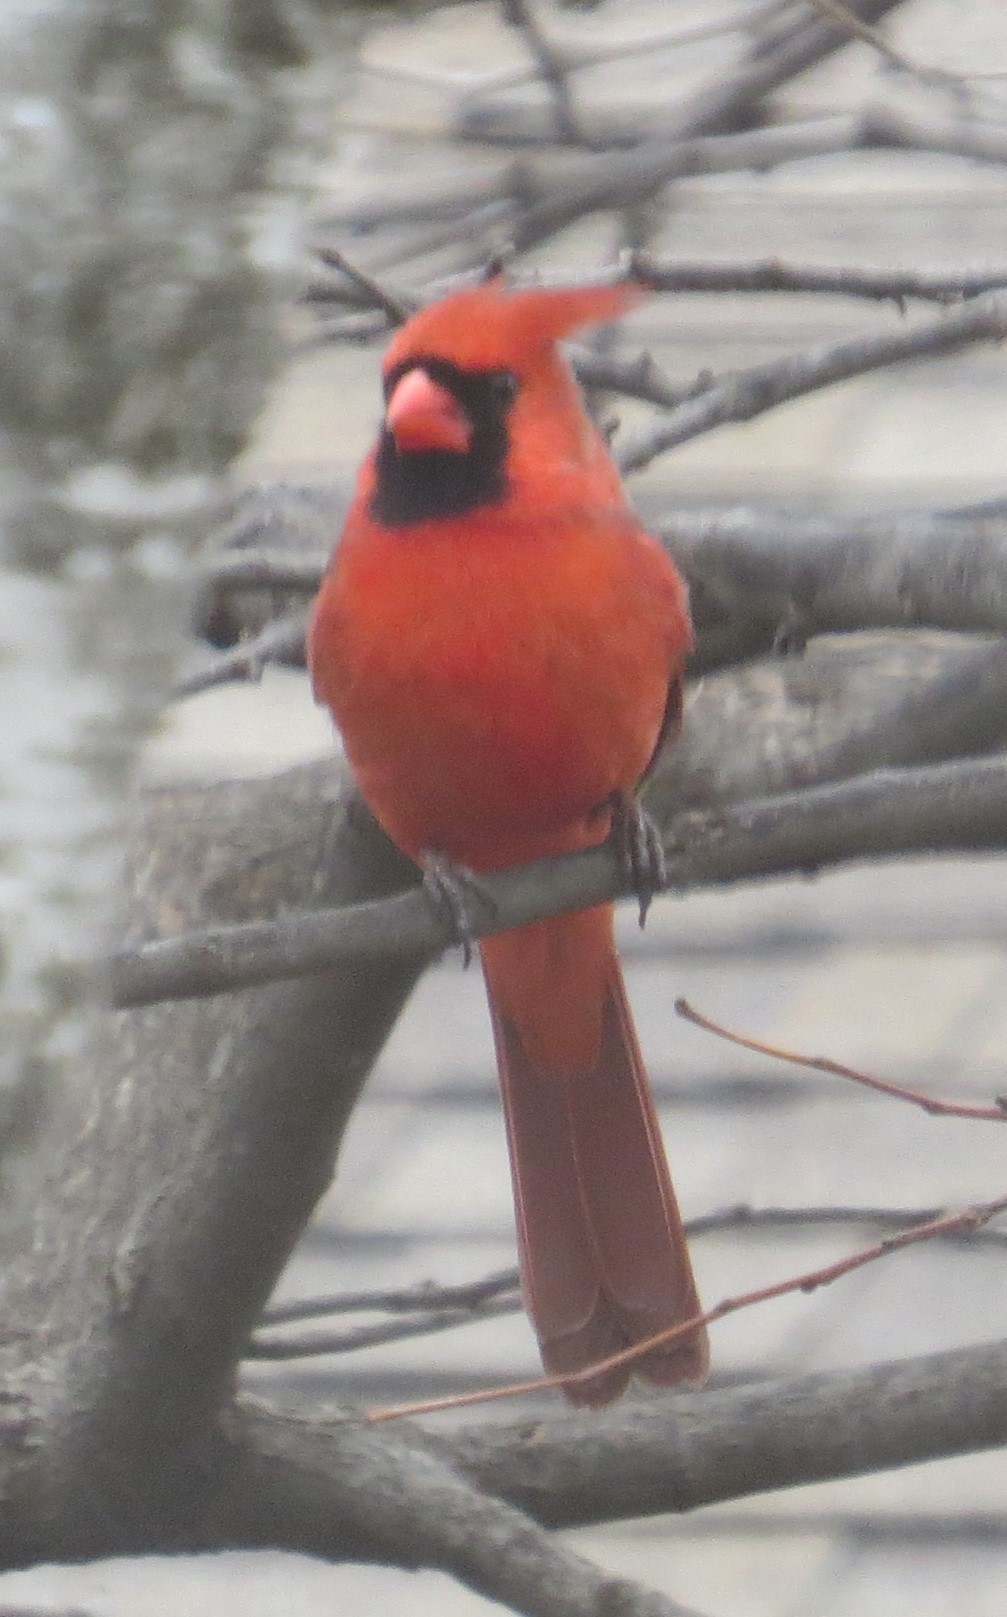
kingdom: Animalia
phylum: Chordata
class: Aves
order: Passeriformes
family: Cardinalidae
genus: Cardinalis
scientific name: Cardinalis cardinalis
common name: Northern cardinal
